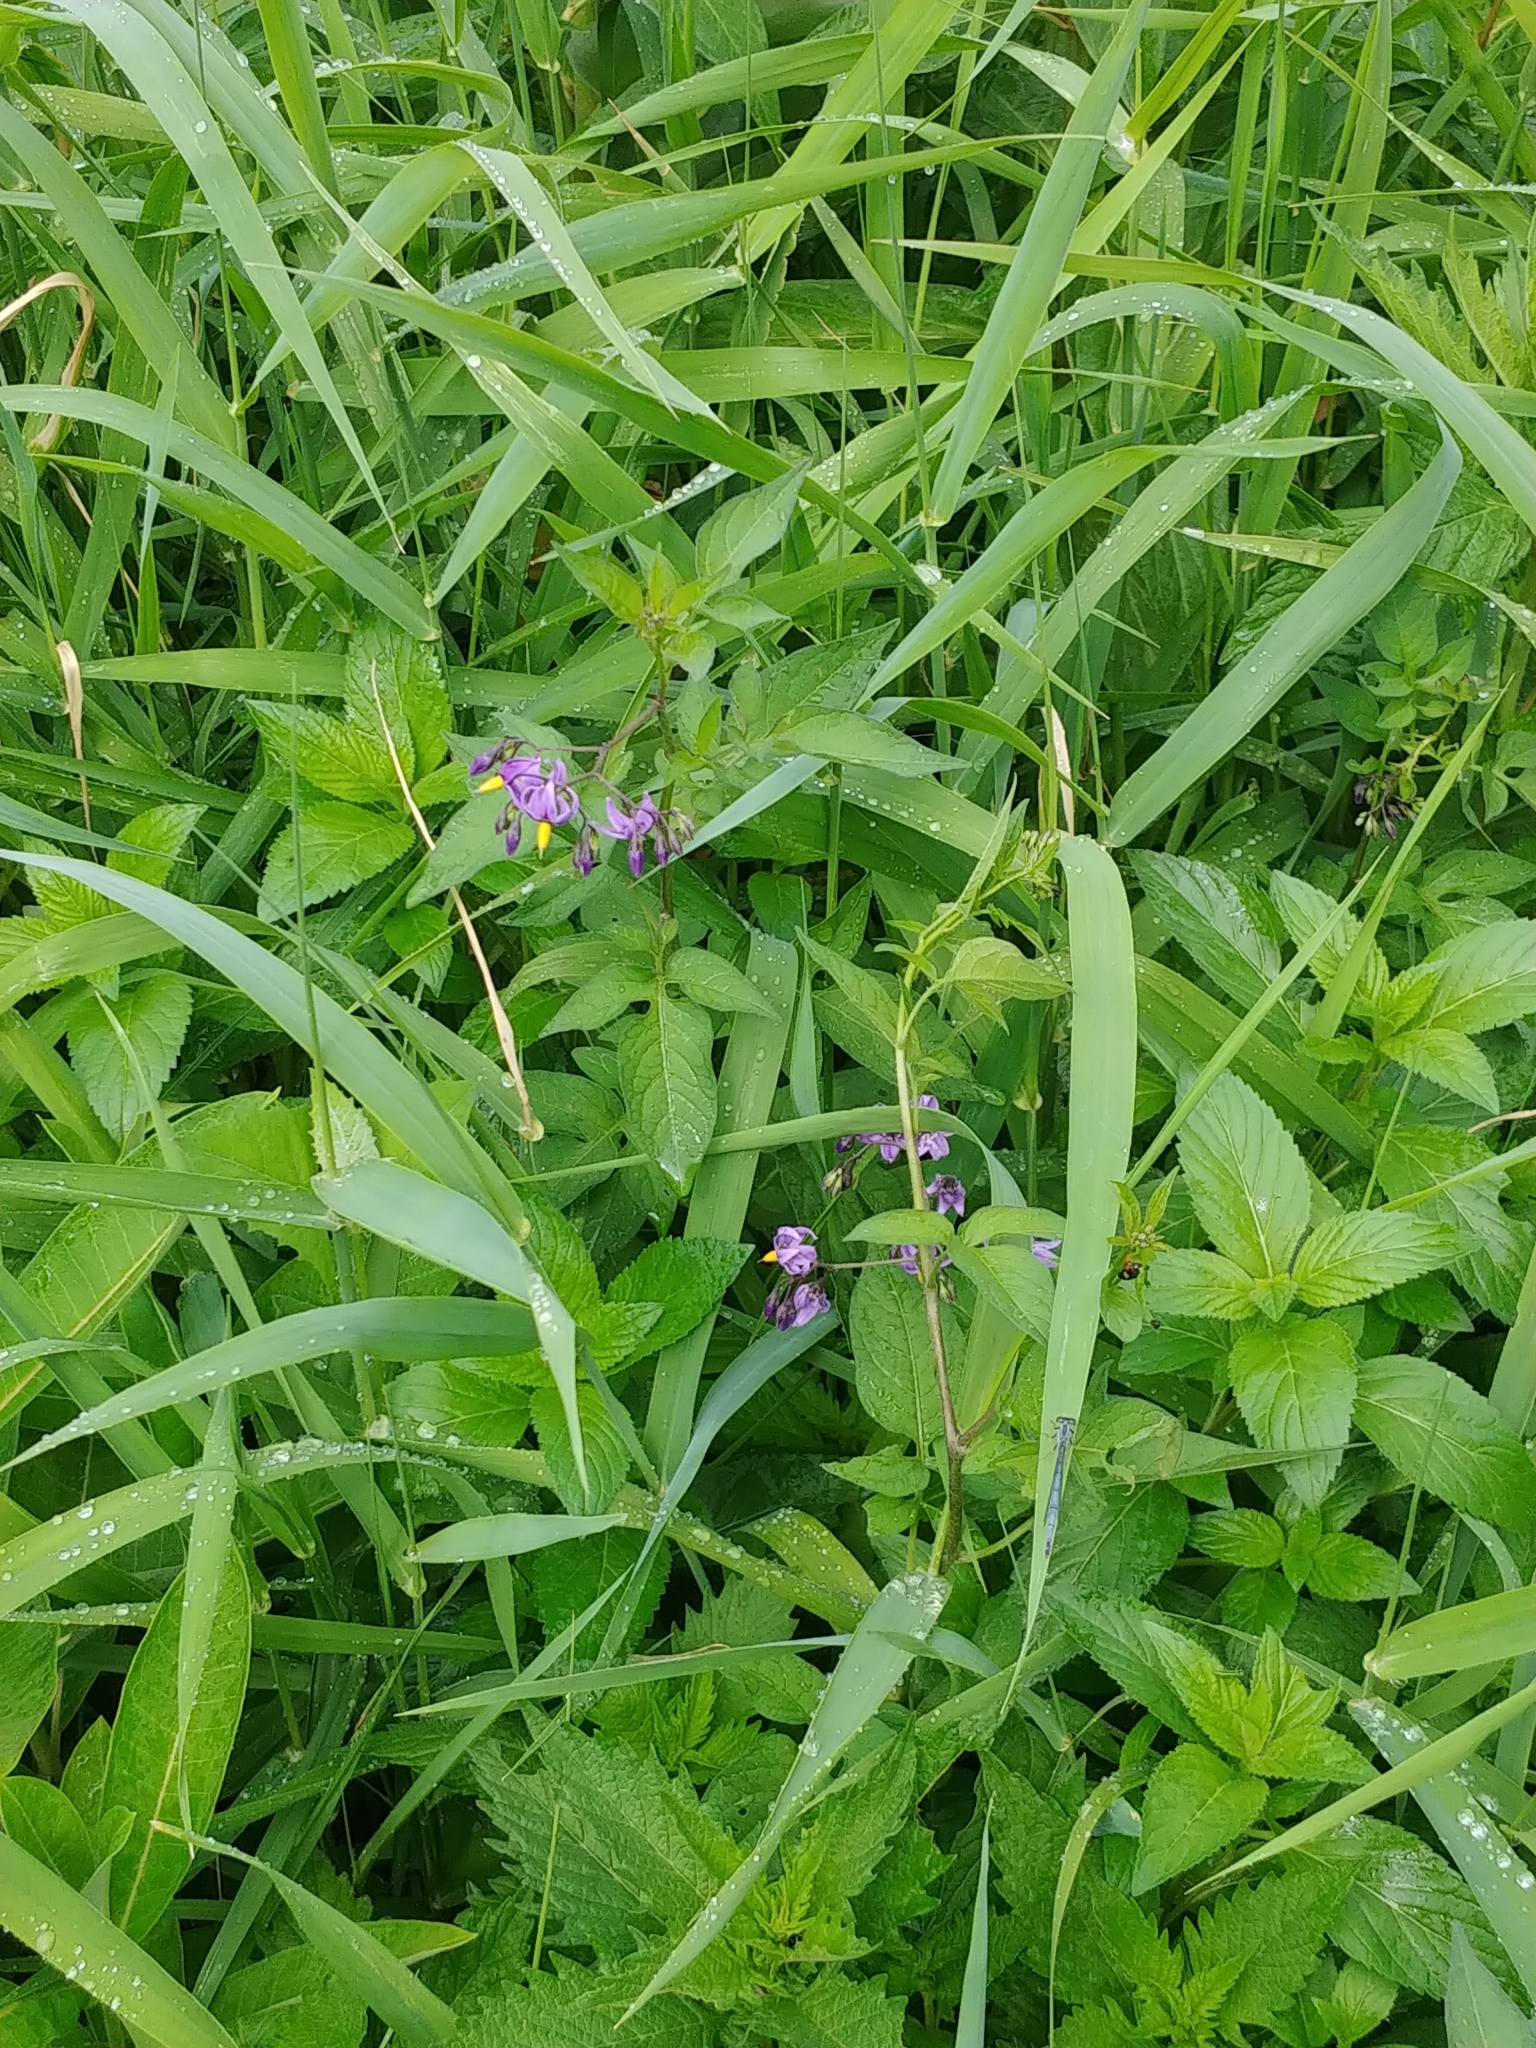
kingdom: Plantae
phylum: Tracheophyta
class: Magnoliopsida
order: Solanales
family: Solanaceae
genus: Solanum
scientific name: Solanum dulcamara
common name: Climbing nightshade
